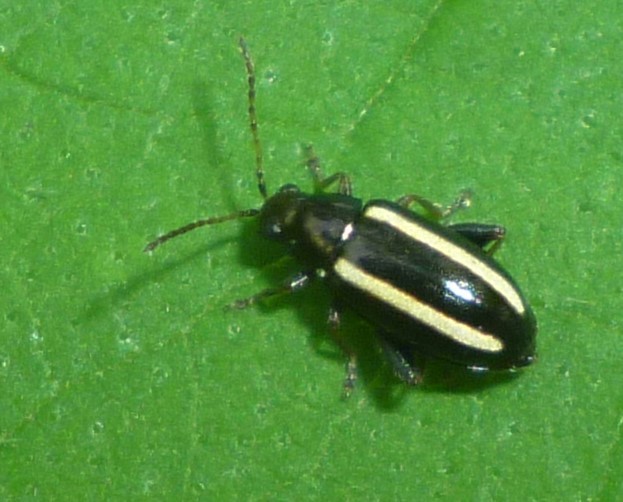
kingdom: Animalia
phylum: Arthropoda
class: Insecta
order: Coleoptera
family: Chrysomelidae
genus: Systena
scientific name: Systena elongata
